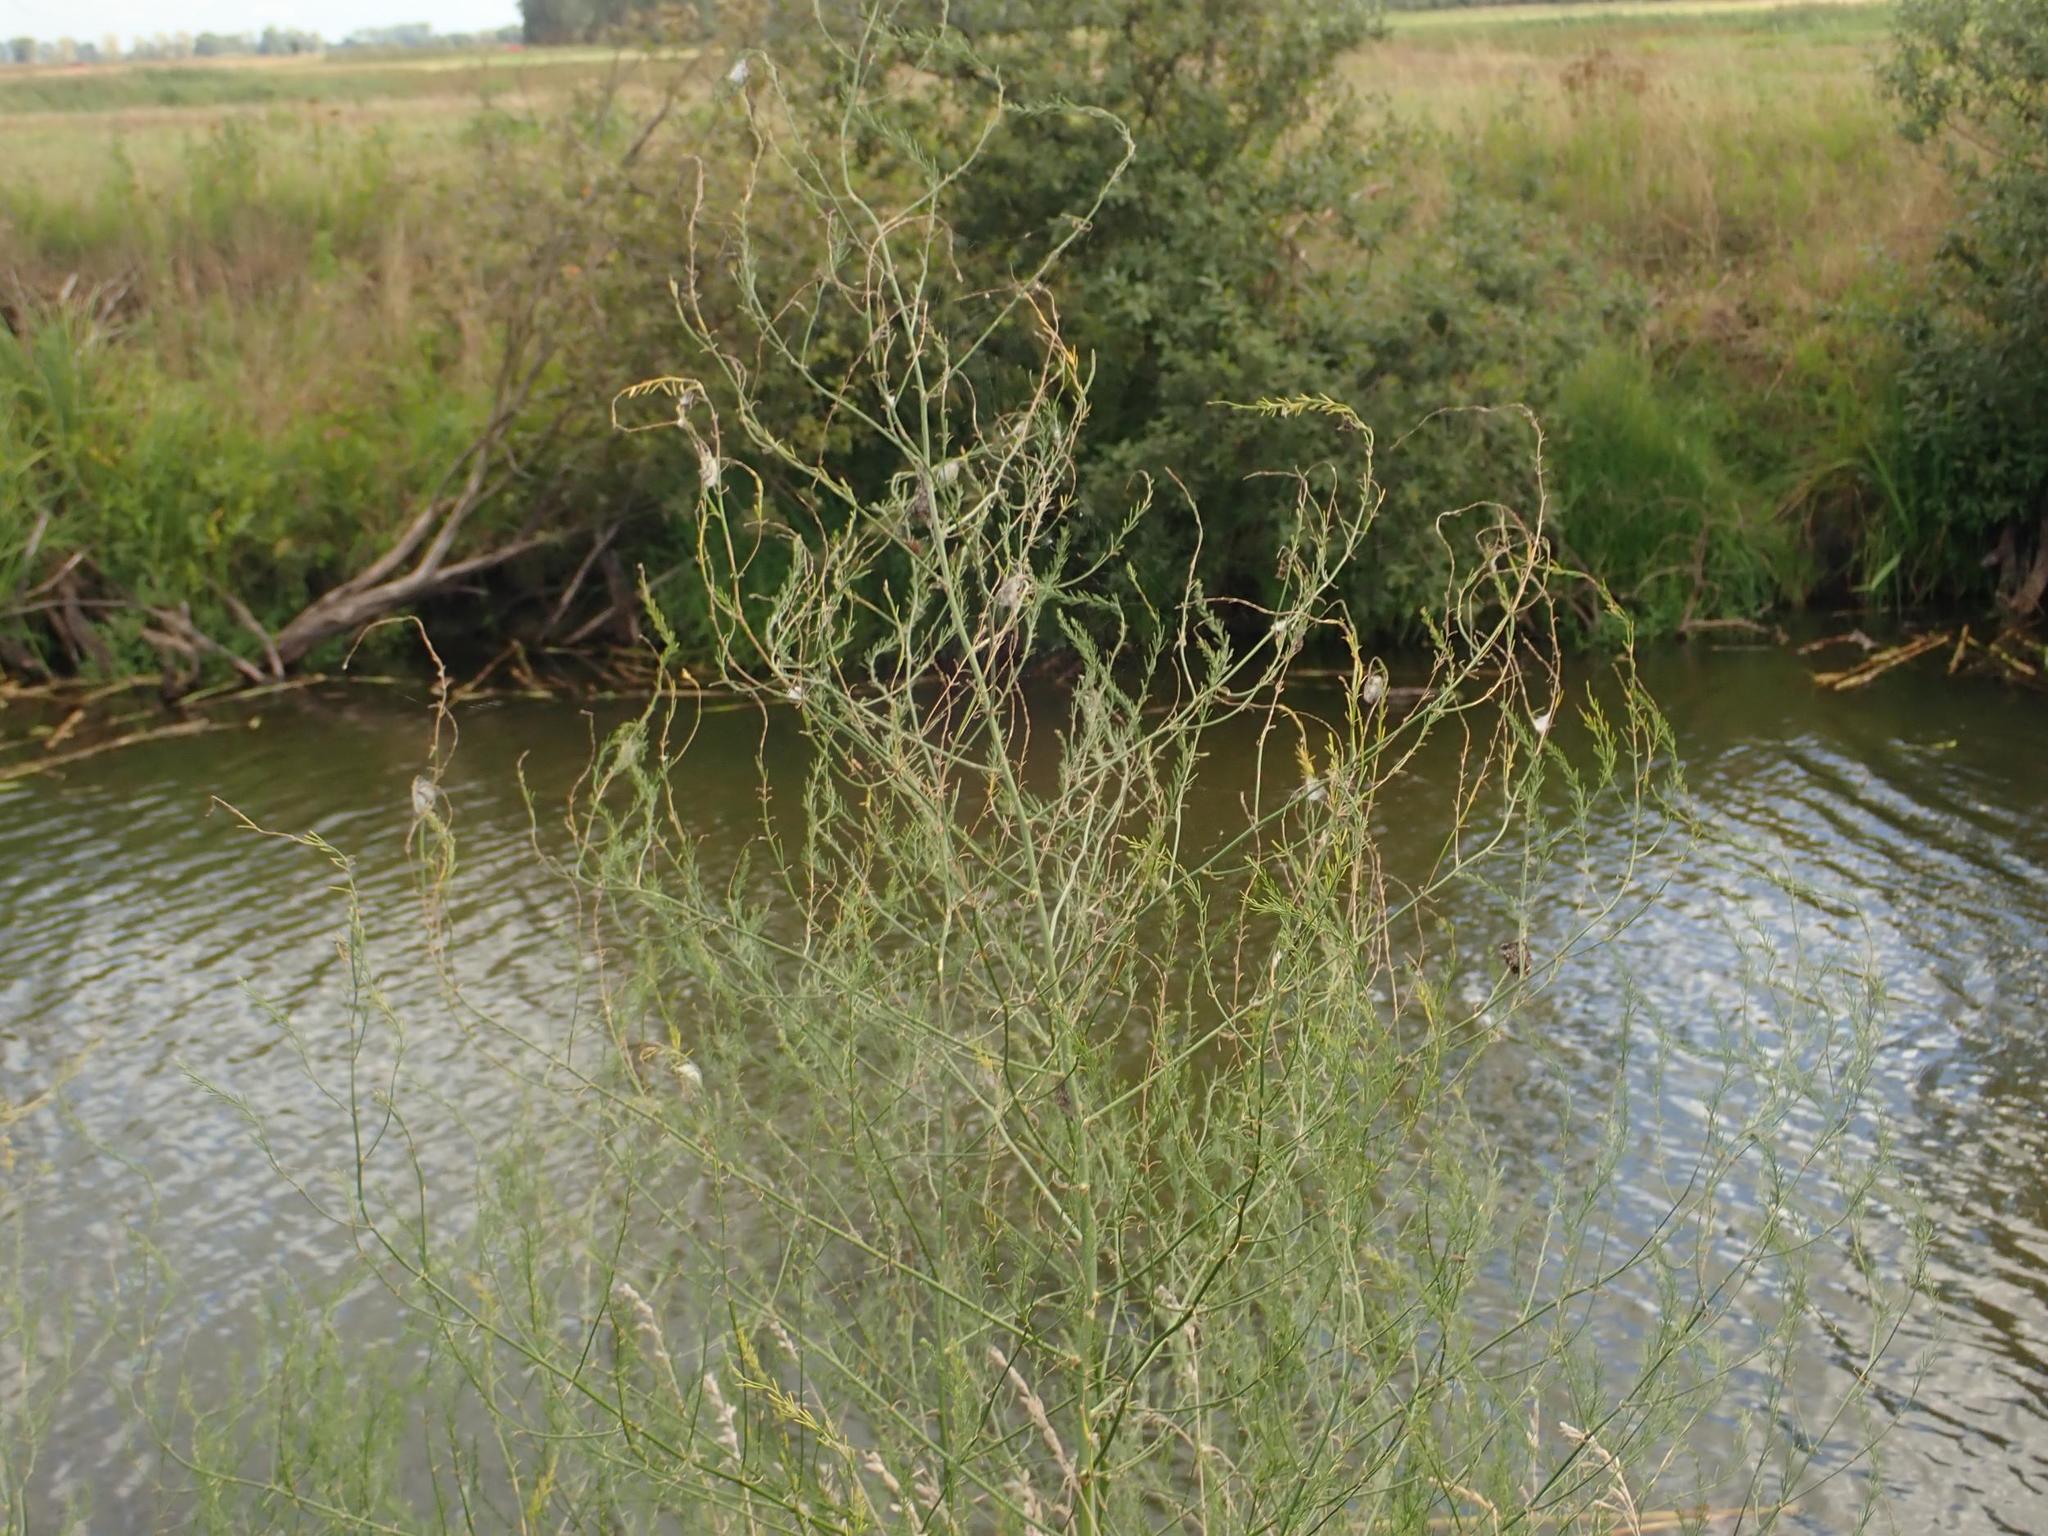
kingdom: Plantae
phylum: Tracheophyta
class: Liliopsida
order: Asparagales
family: Asparagaceae
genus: Asparagus
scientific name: Asparagus officinalis
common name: Garden asparagus
